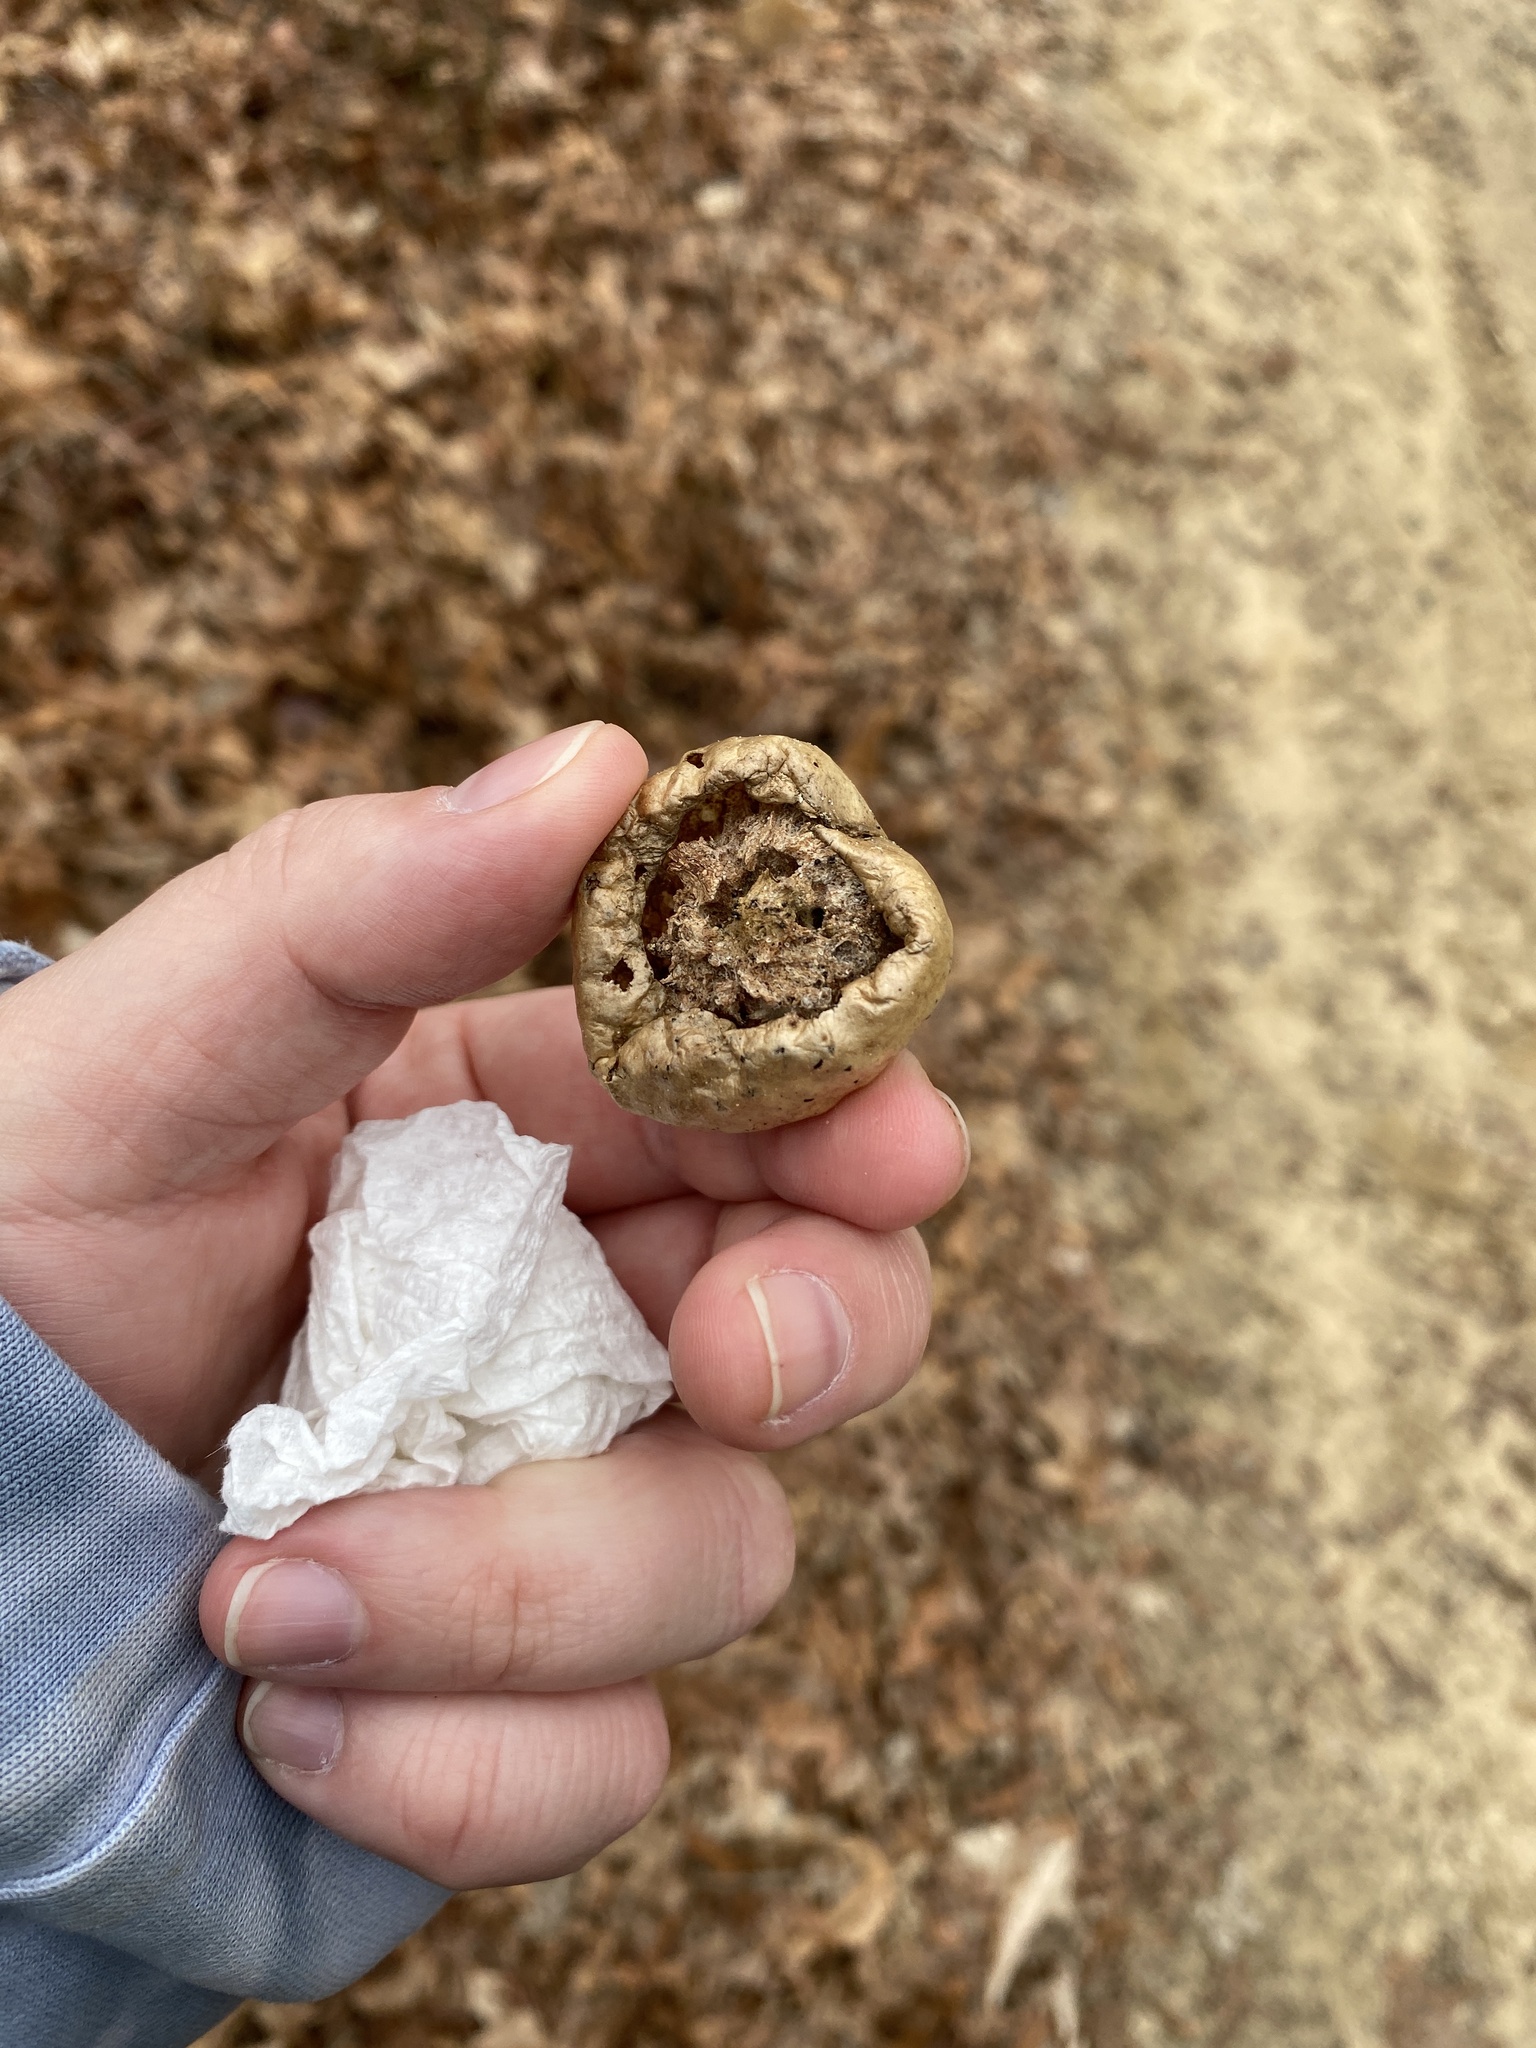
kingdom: Animalia
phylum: Arthropoda
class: Insecta
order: Hymenoptera
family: Cynipidae
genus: Amphibolips
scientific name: Amphibolips
